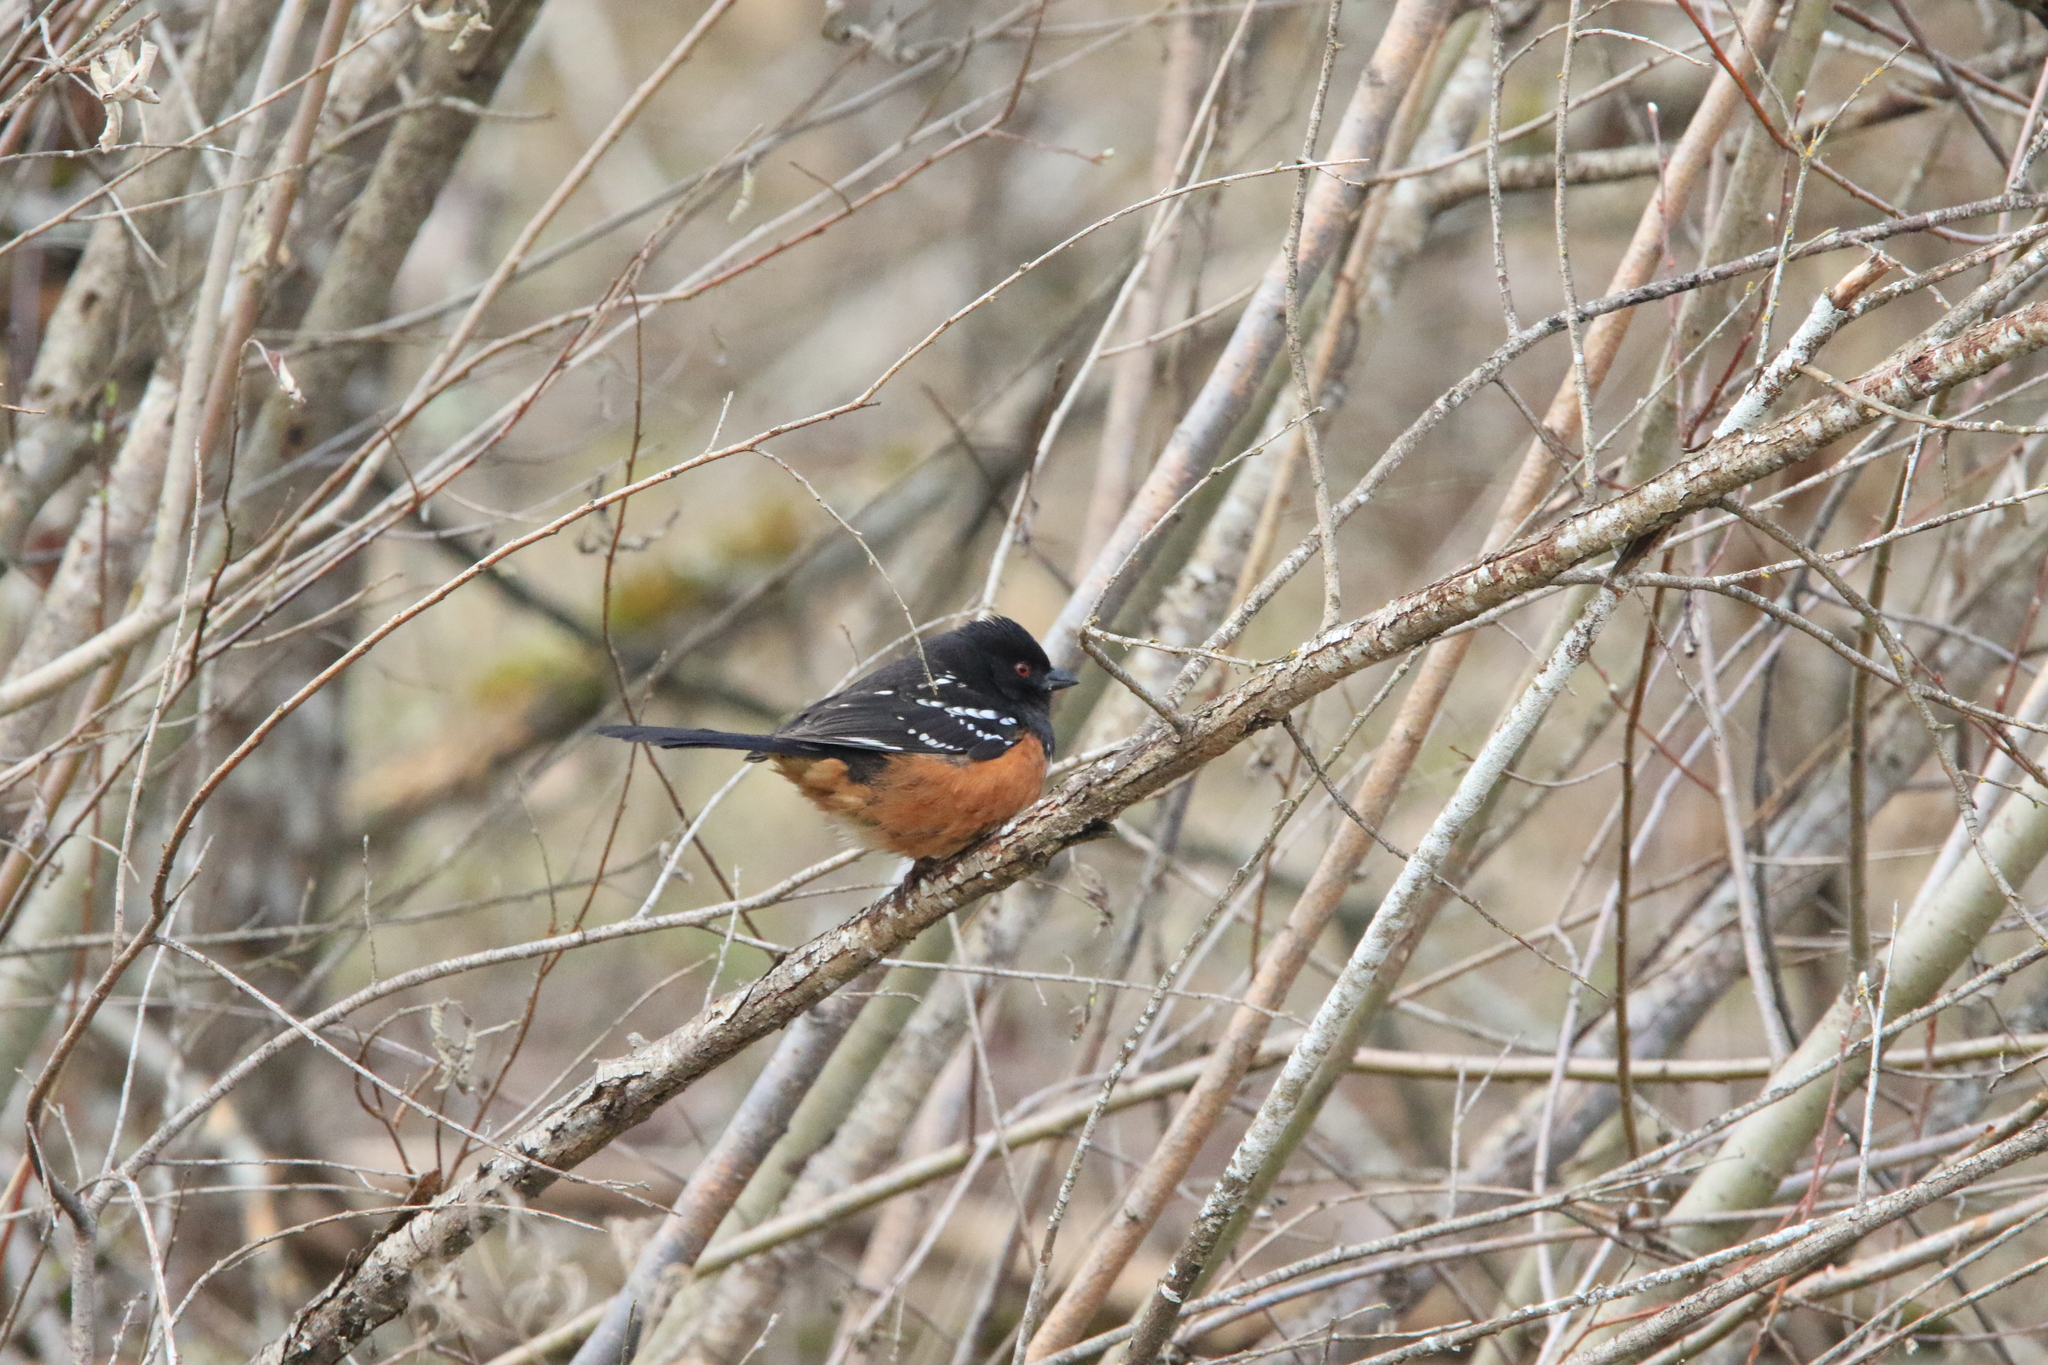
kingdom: Animalia
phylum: Chordata
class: Aves
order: Passeriformes
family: Passerellidae
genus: Pipilo
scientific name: Pipilo maculatus
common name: Spotted towhee
